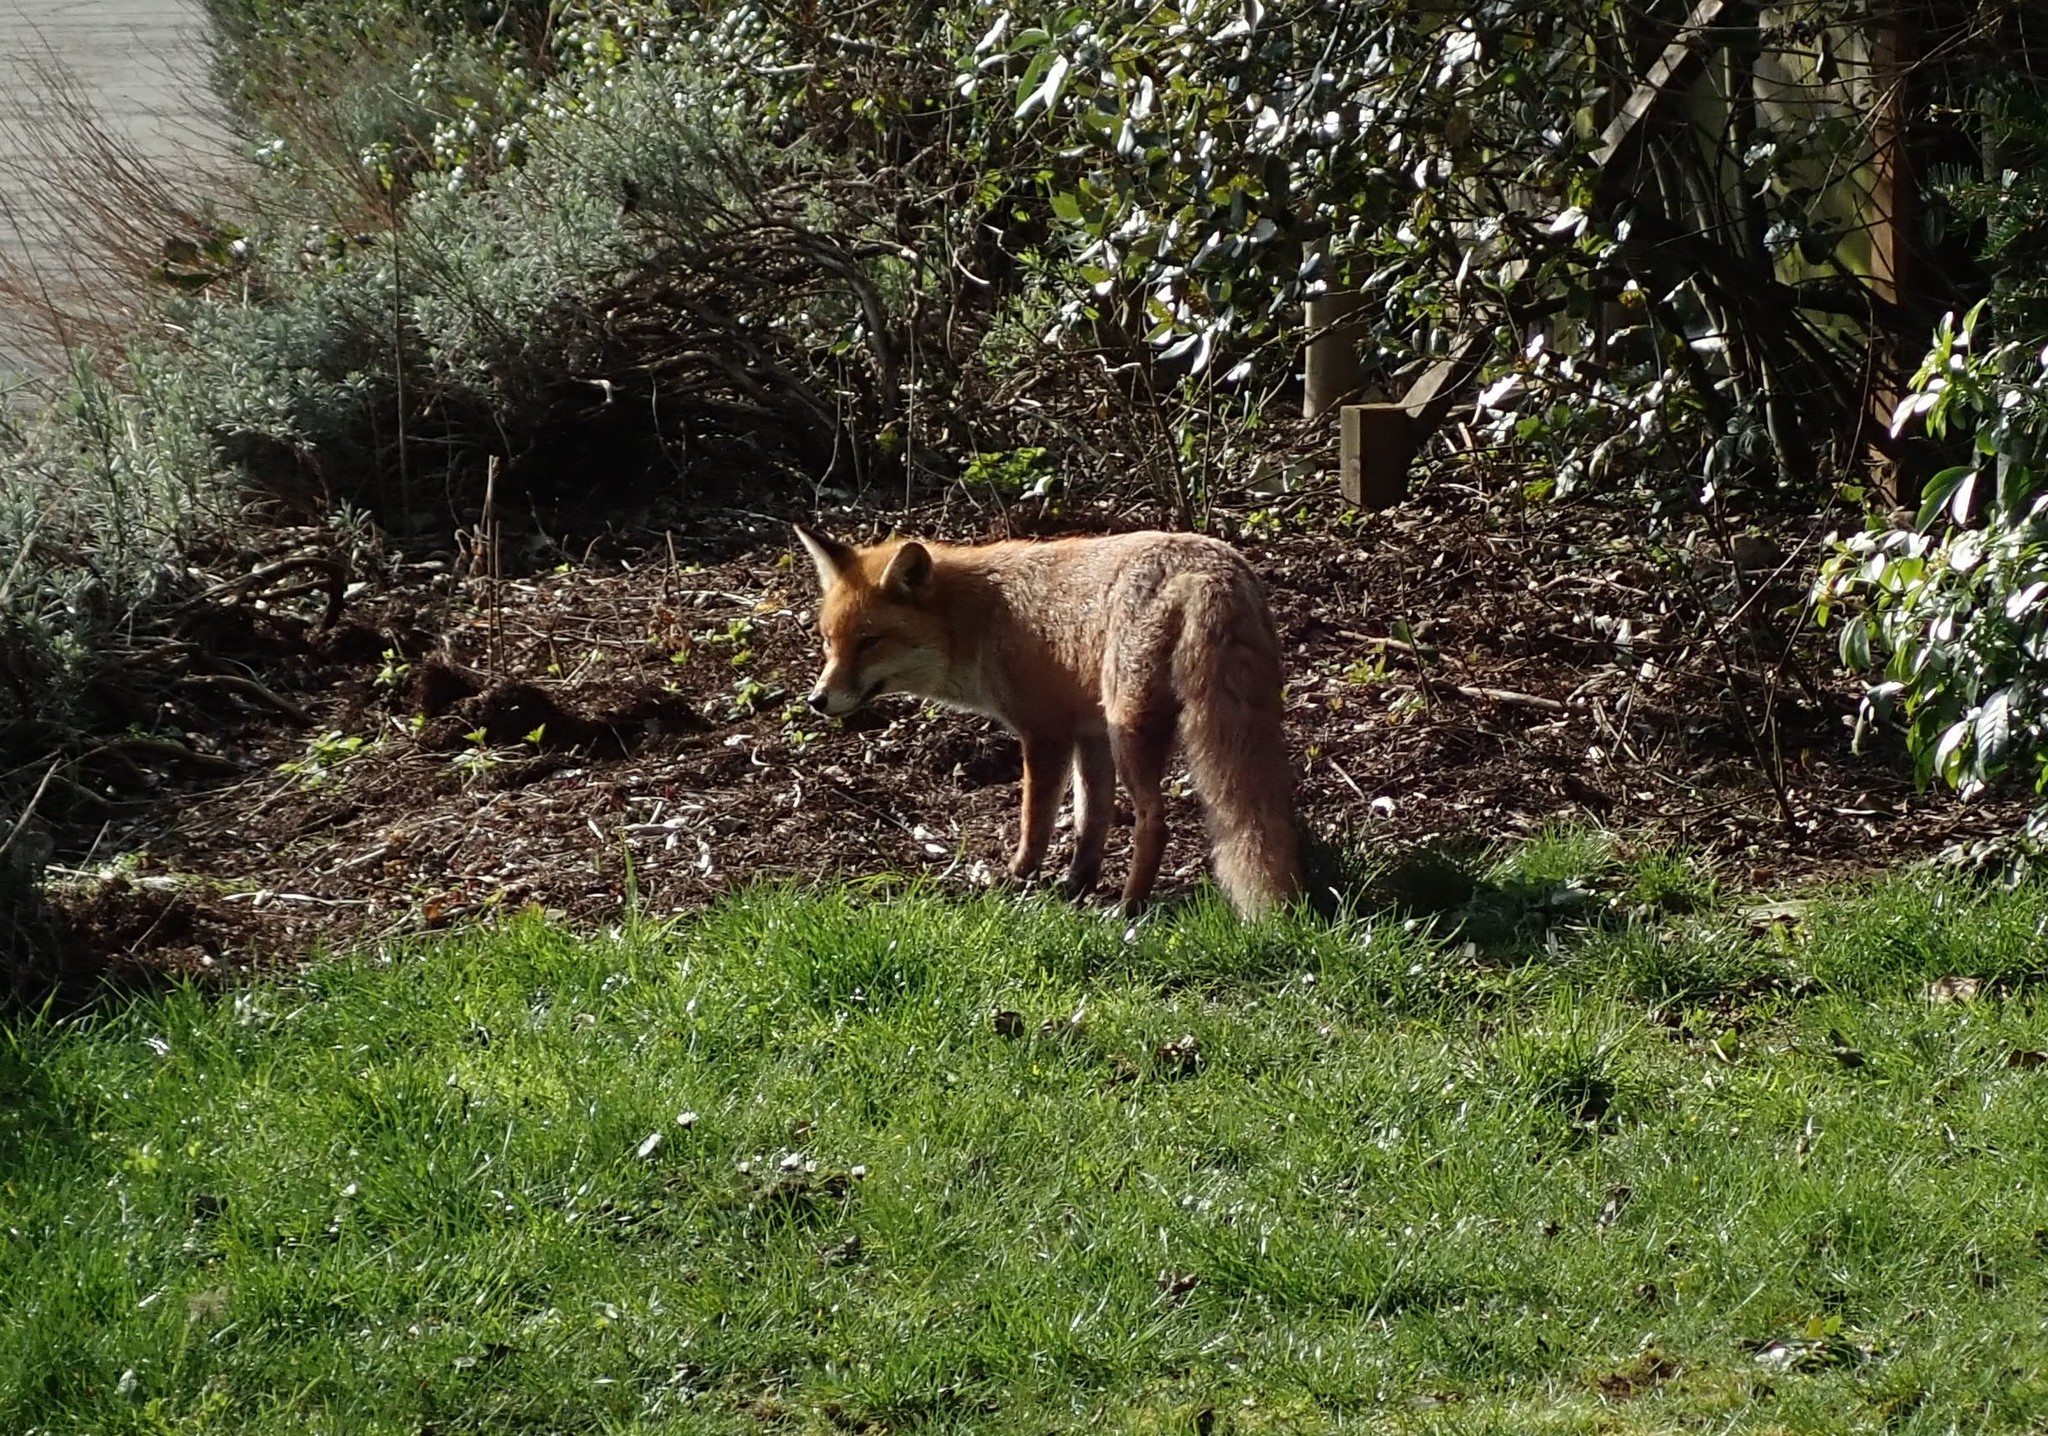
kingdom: Animalia
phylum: Chordata
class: Mammalia
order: Carnivora
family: Canidae
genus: Vulpes
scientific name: Vulpes vulpes
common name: Red fox
